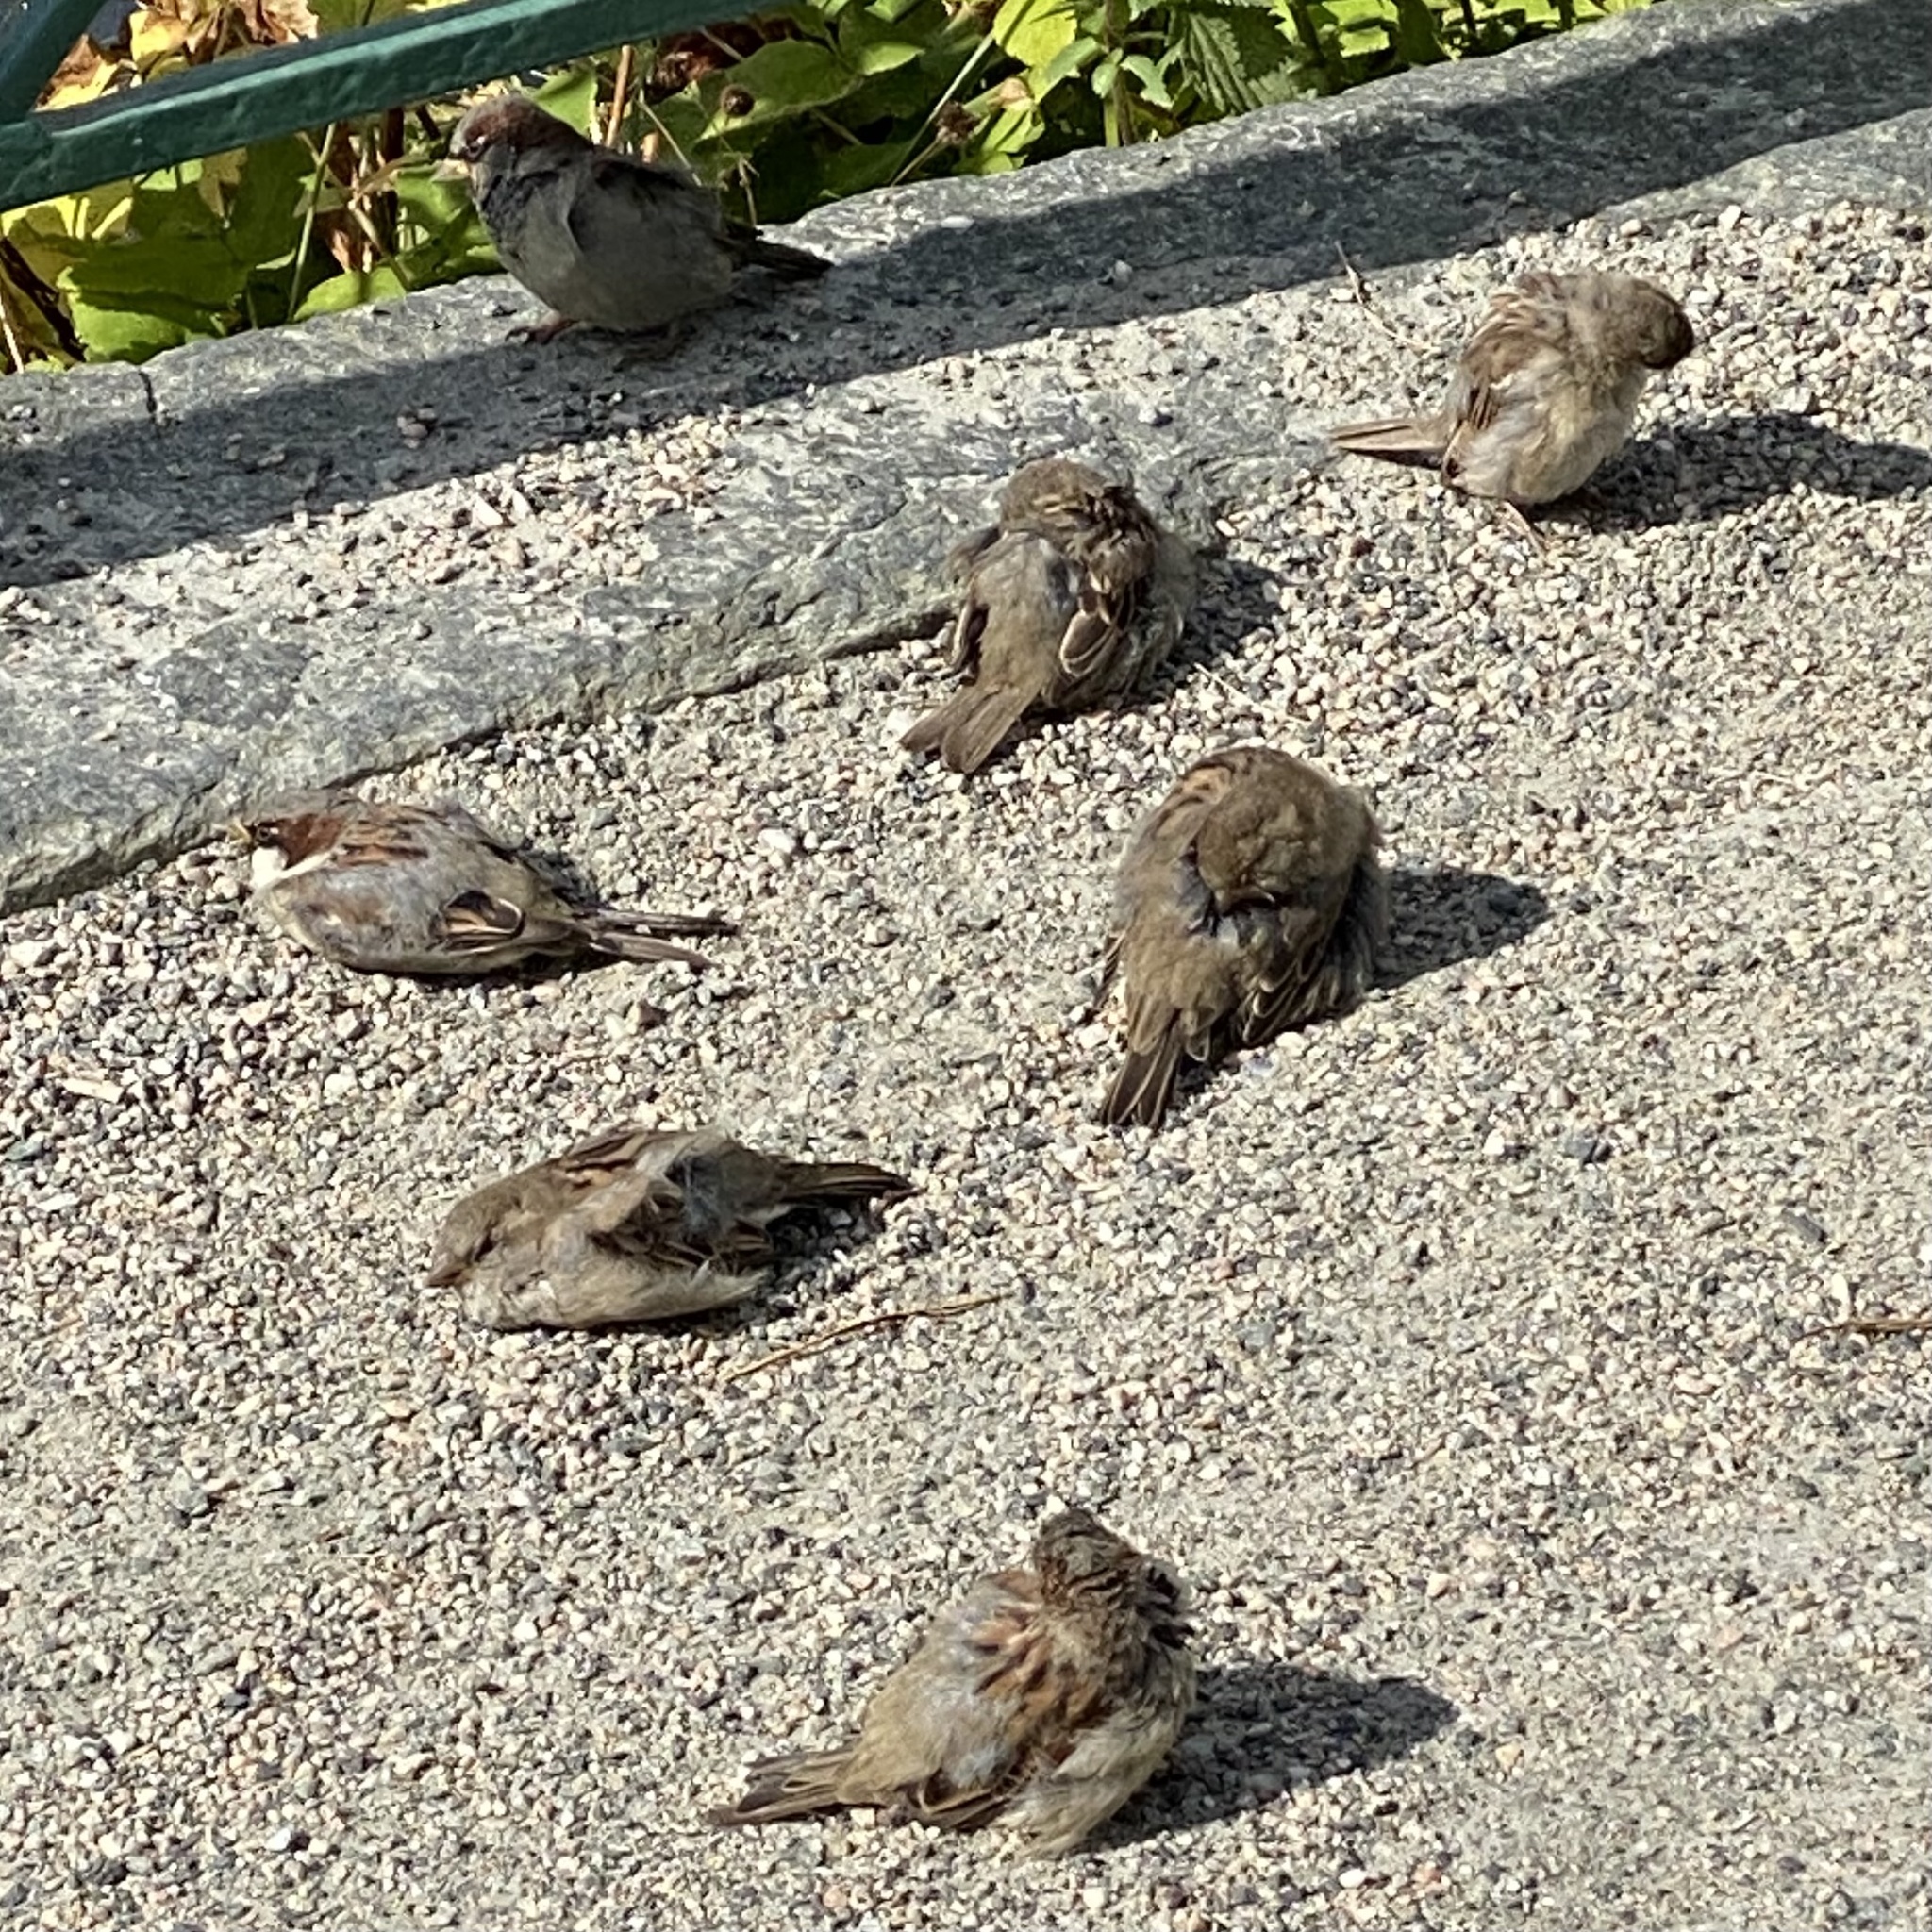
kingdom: Animalia
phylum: Chordata
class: Aves
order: Passeriformes
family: Passeridae
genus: Passer
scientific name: Passer domesticus
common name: House sparrow
